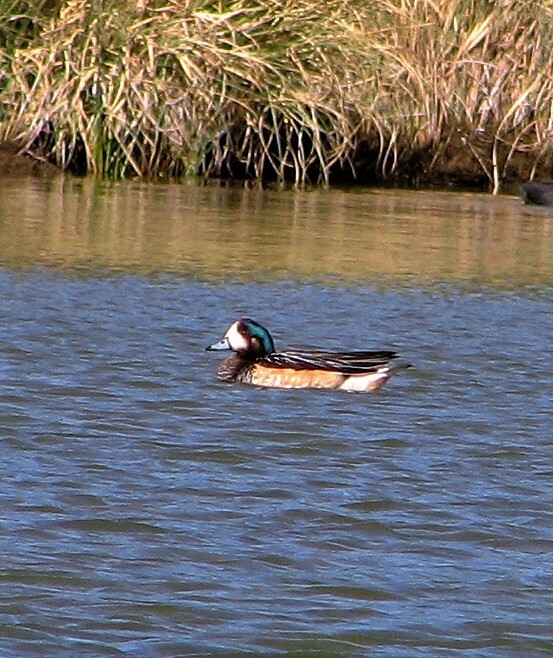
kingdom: Animalia
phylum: Chordata
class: Aves
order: Anseriformes
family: Anatidae
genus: Mareca
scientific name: Mareca sibilatrix
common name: Chiloe wigeon
